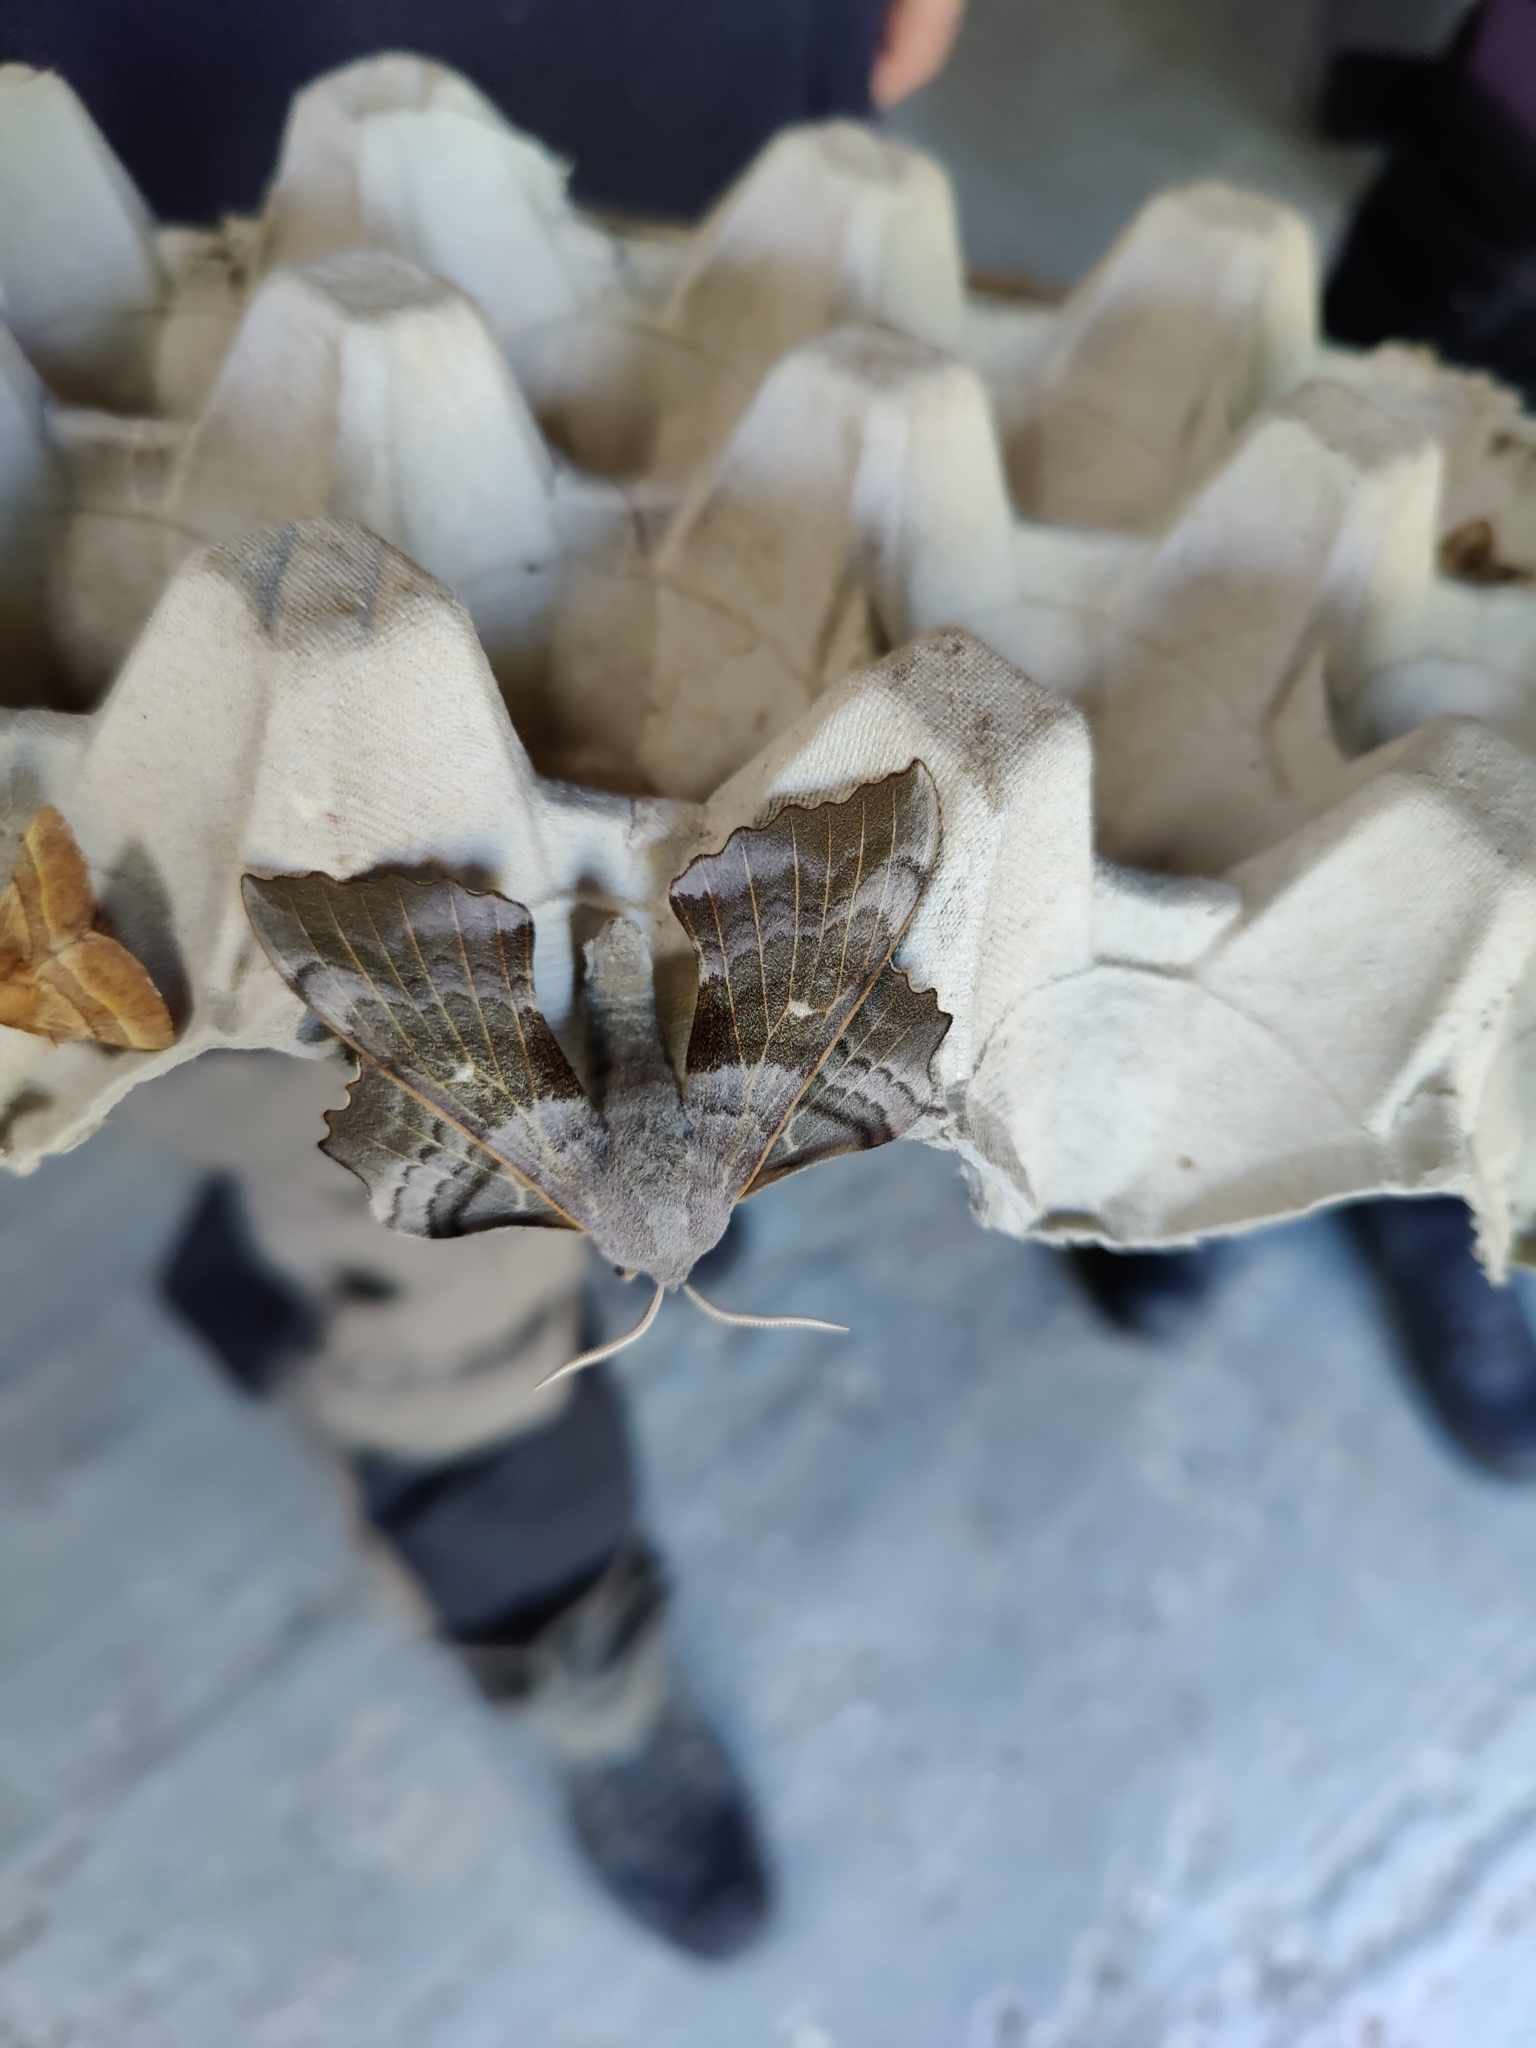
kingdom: Animalia
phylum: Arthropoda
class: Insecta
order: Lepidoptera
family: Sphingidae
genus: Laothoe
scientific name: Laothoe populi
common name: Poplar hawk-moth
